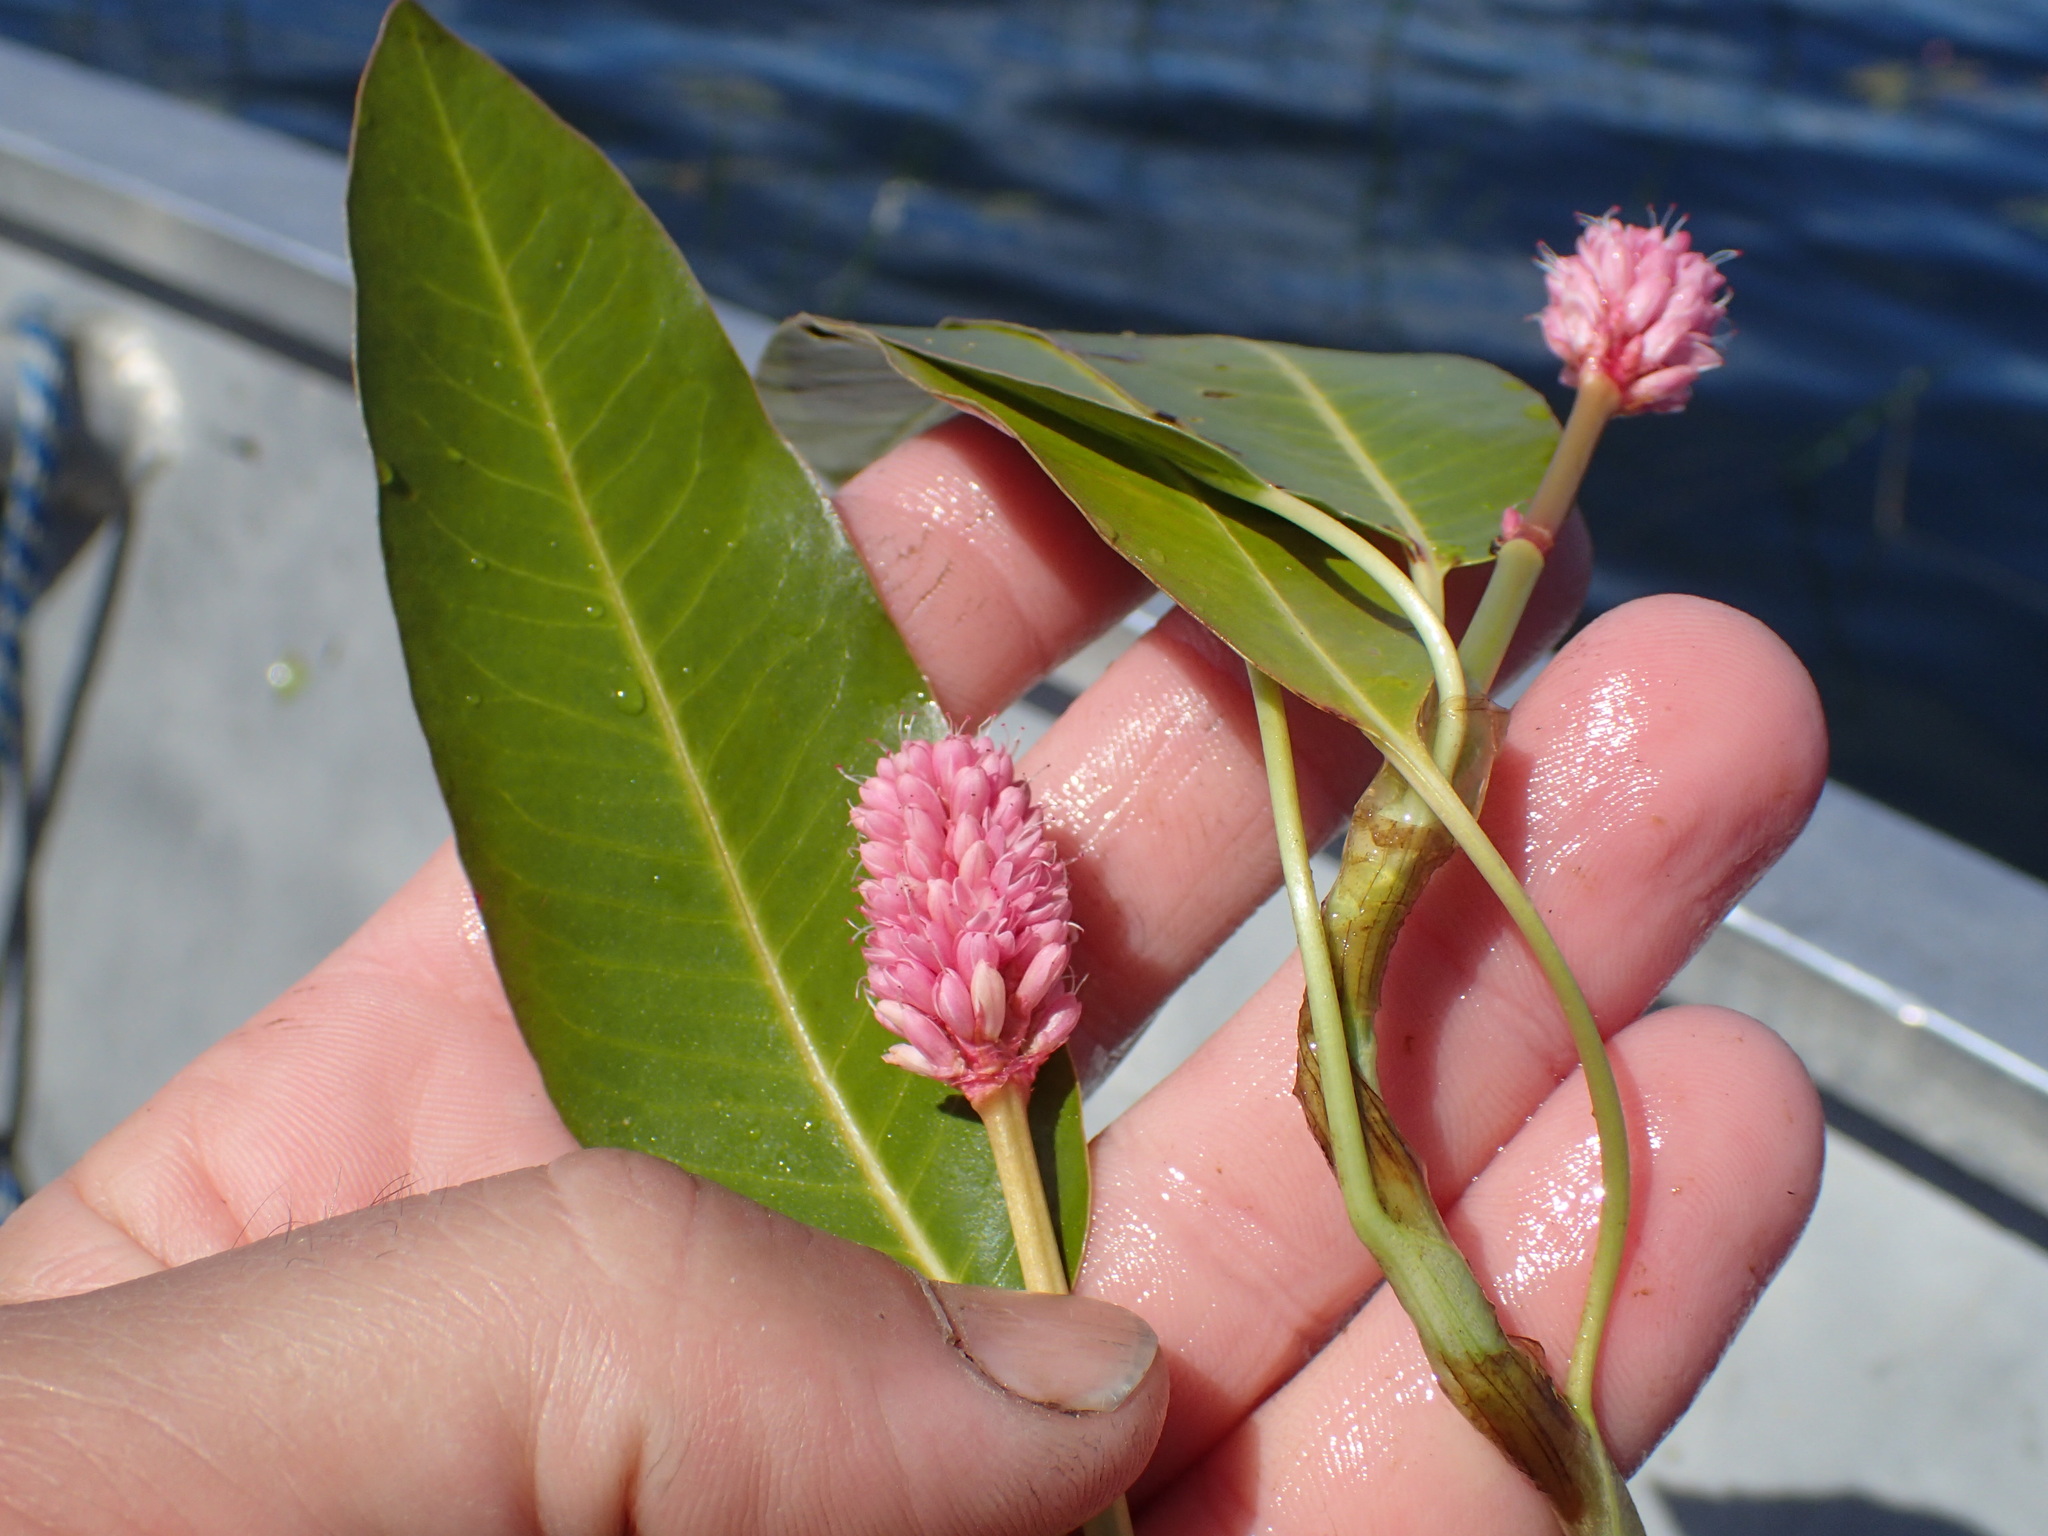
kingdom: Plantae
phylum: Tracheophyta
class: Magnoliopsida
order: Caryophyllales
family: Polygonaceae
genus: Persicaria
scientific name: Persicaria amphibia
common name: Amphibious bistort
